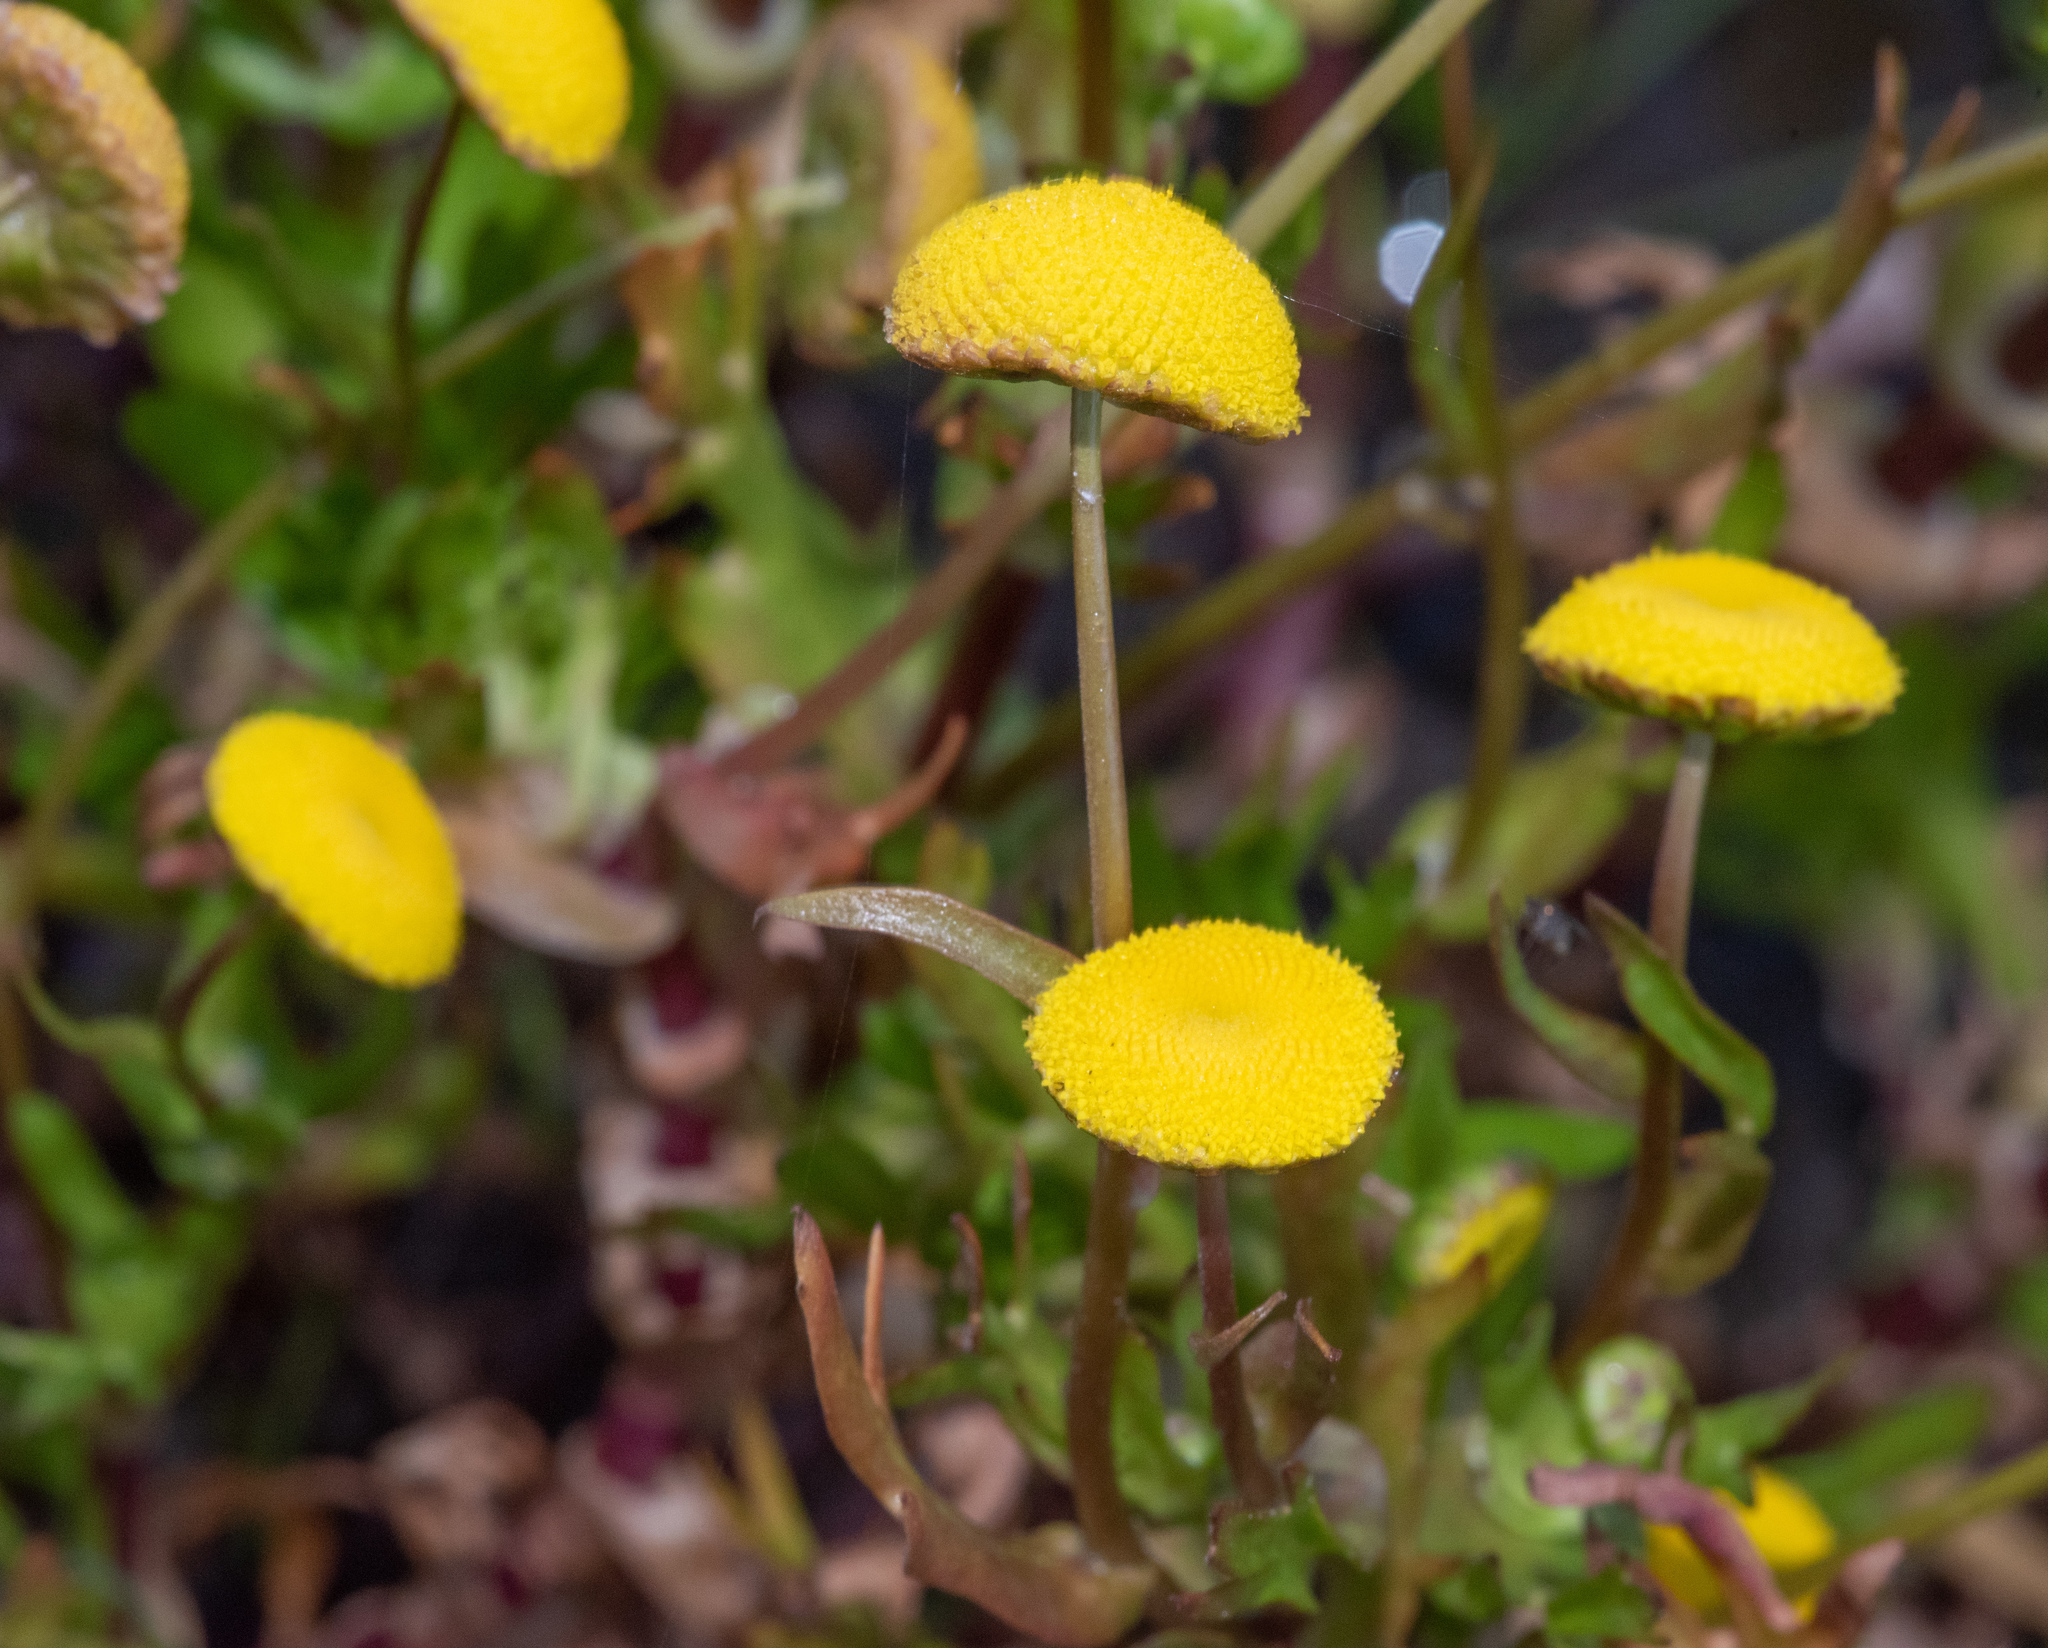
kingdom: Plantae
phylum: Tracheophyta
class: Magnoliopsida
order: Asterales
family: Asteraceae
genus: Cotula
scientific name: Cotula coronopifolia
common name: Buttonweed
